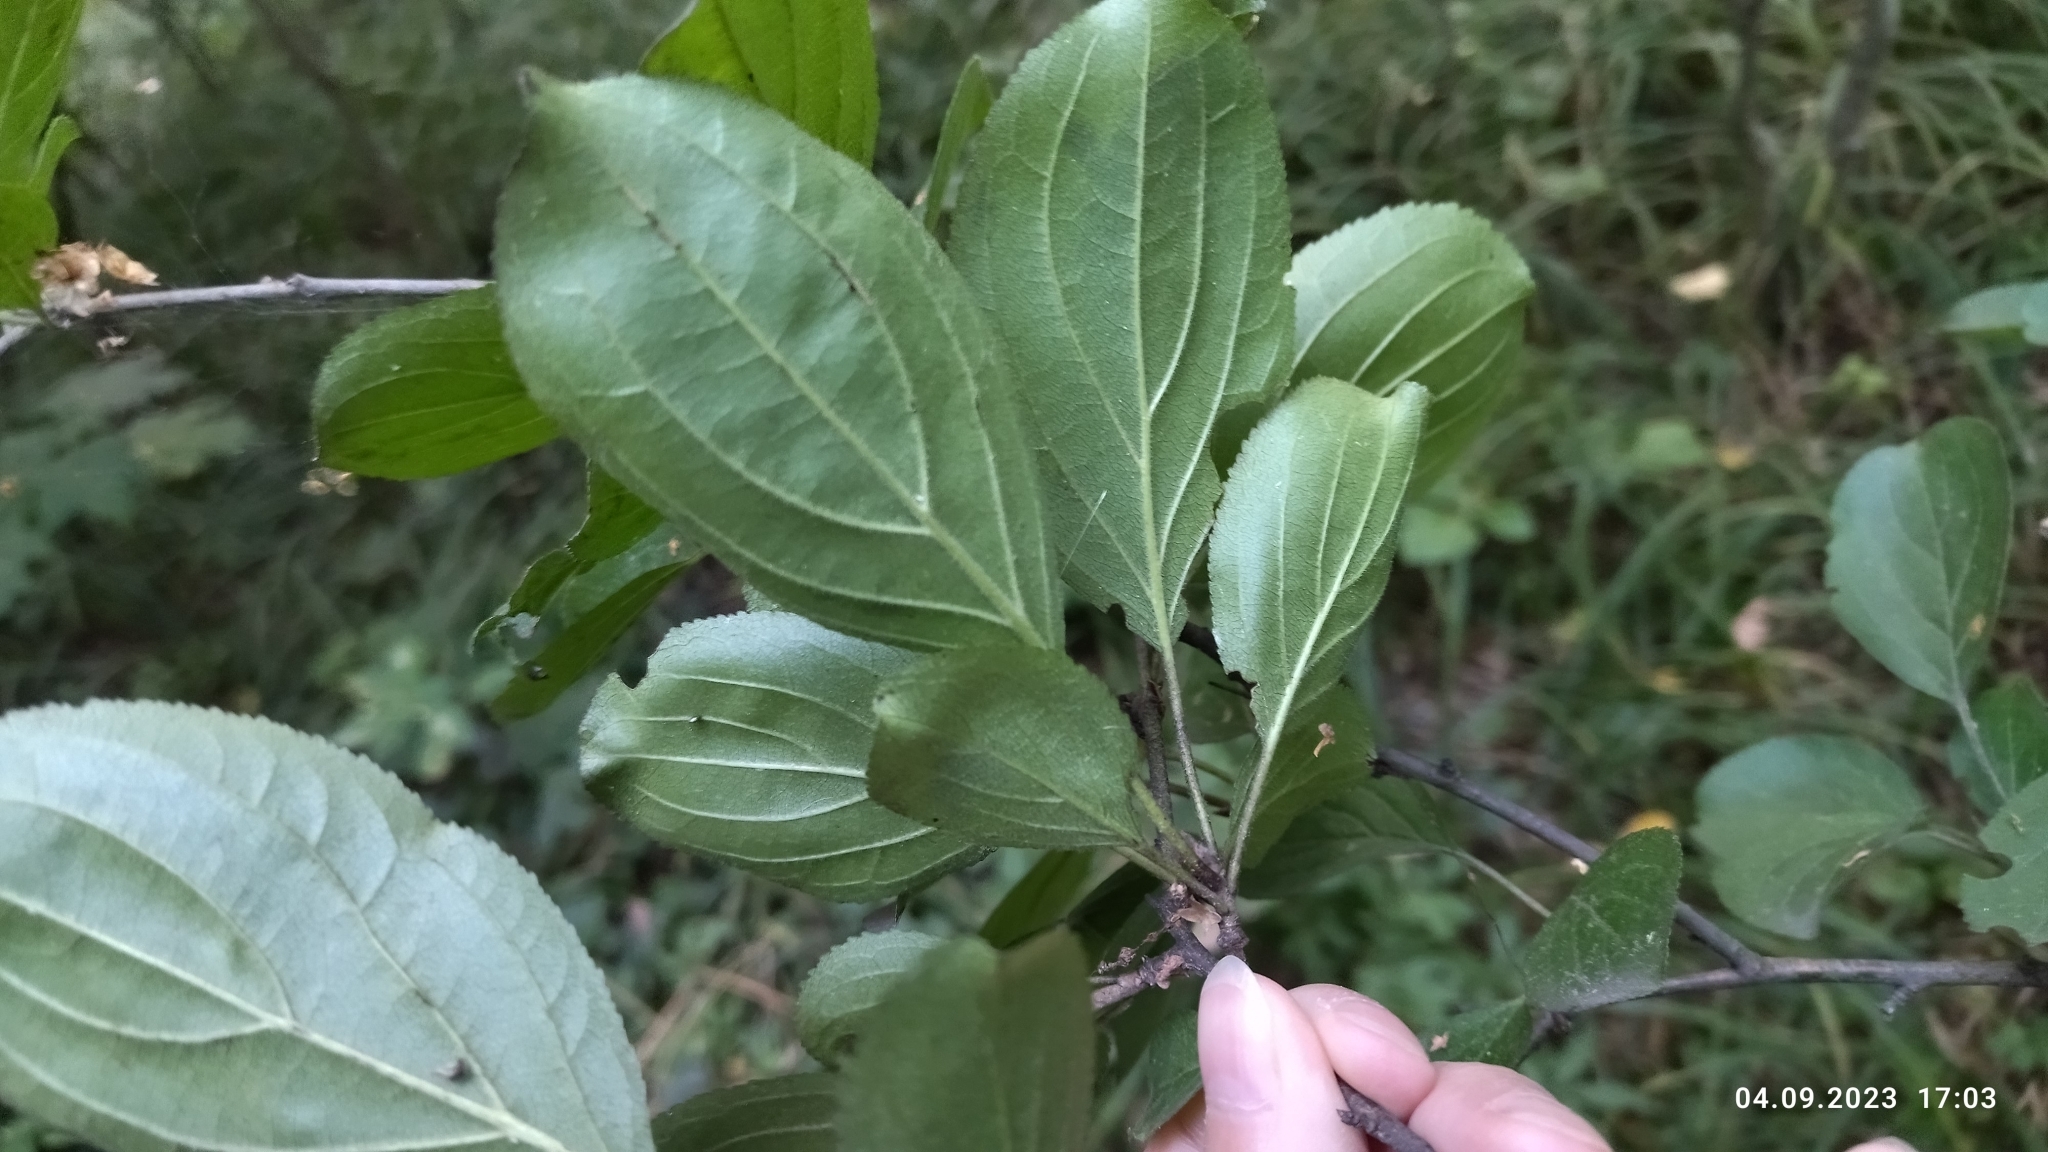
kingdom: Plantae
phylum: Tracheophyta
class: Magnoliopsida
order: Rosales
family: Rhamnaceae
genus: Rhamnus
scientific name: Rhamnus cathartica
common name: Common buckthorn
